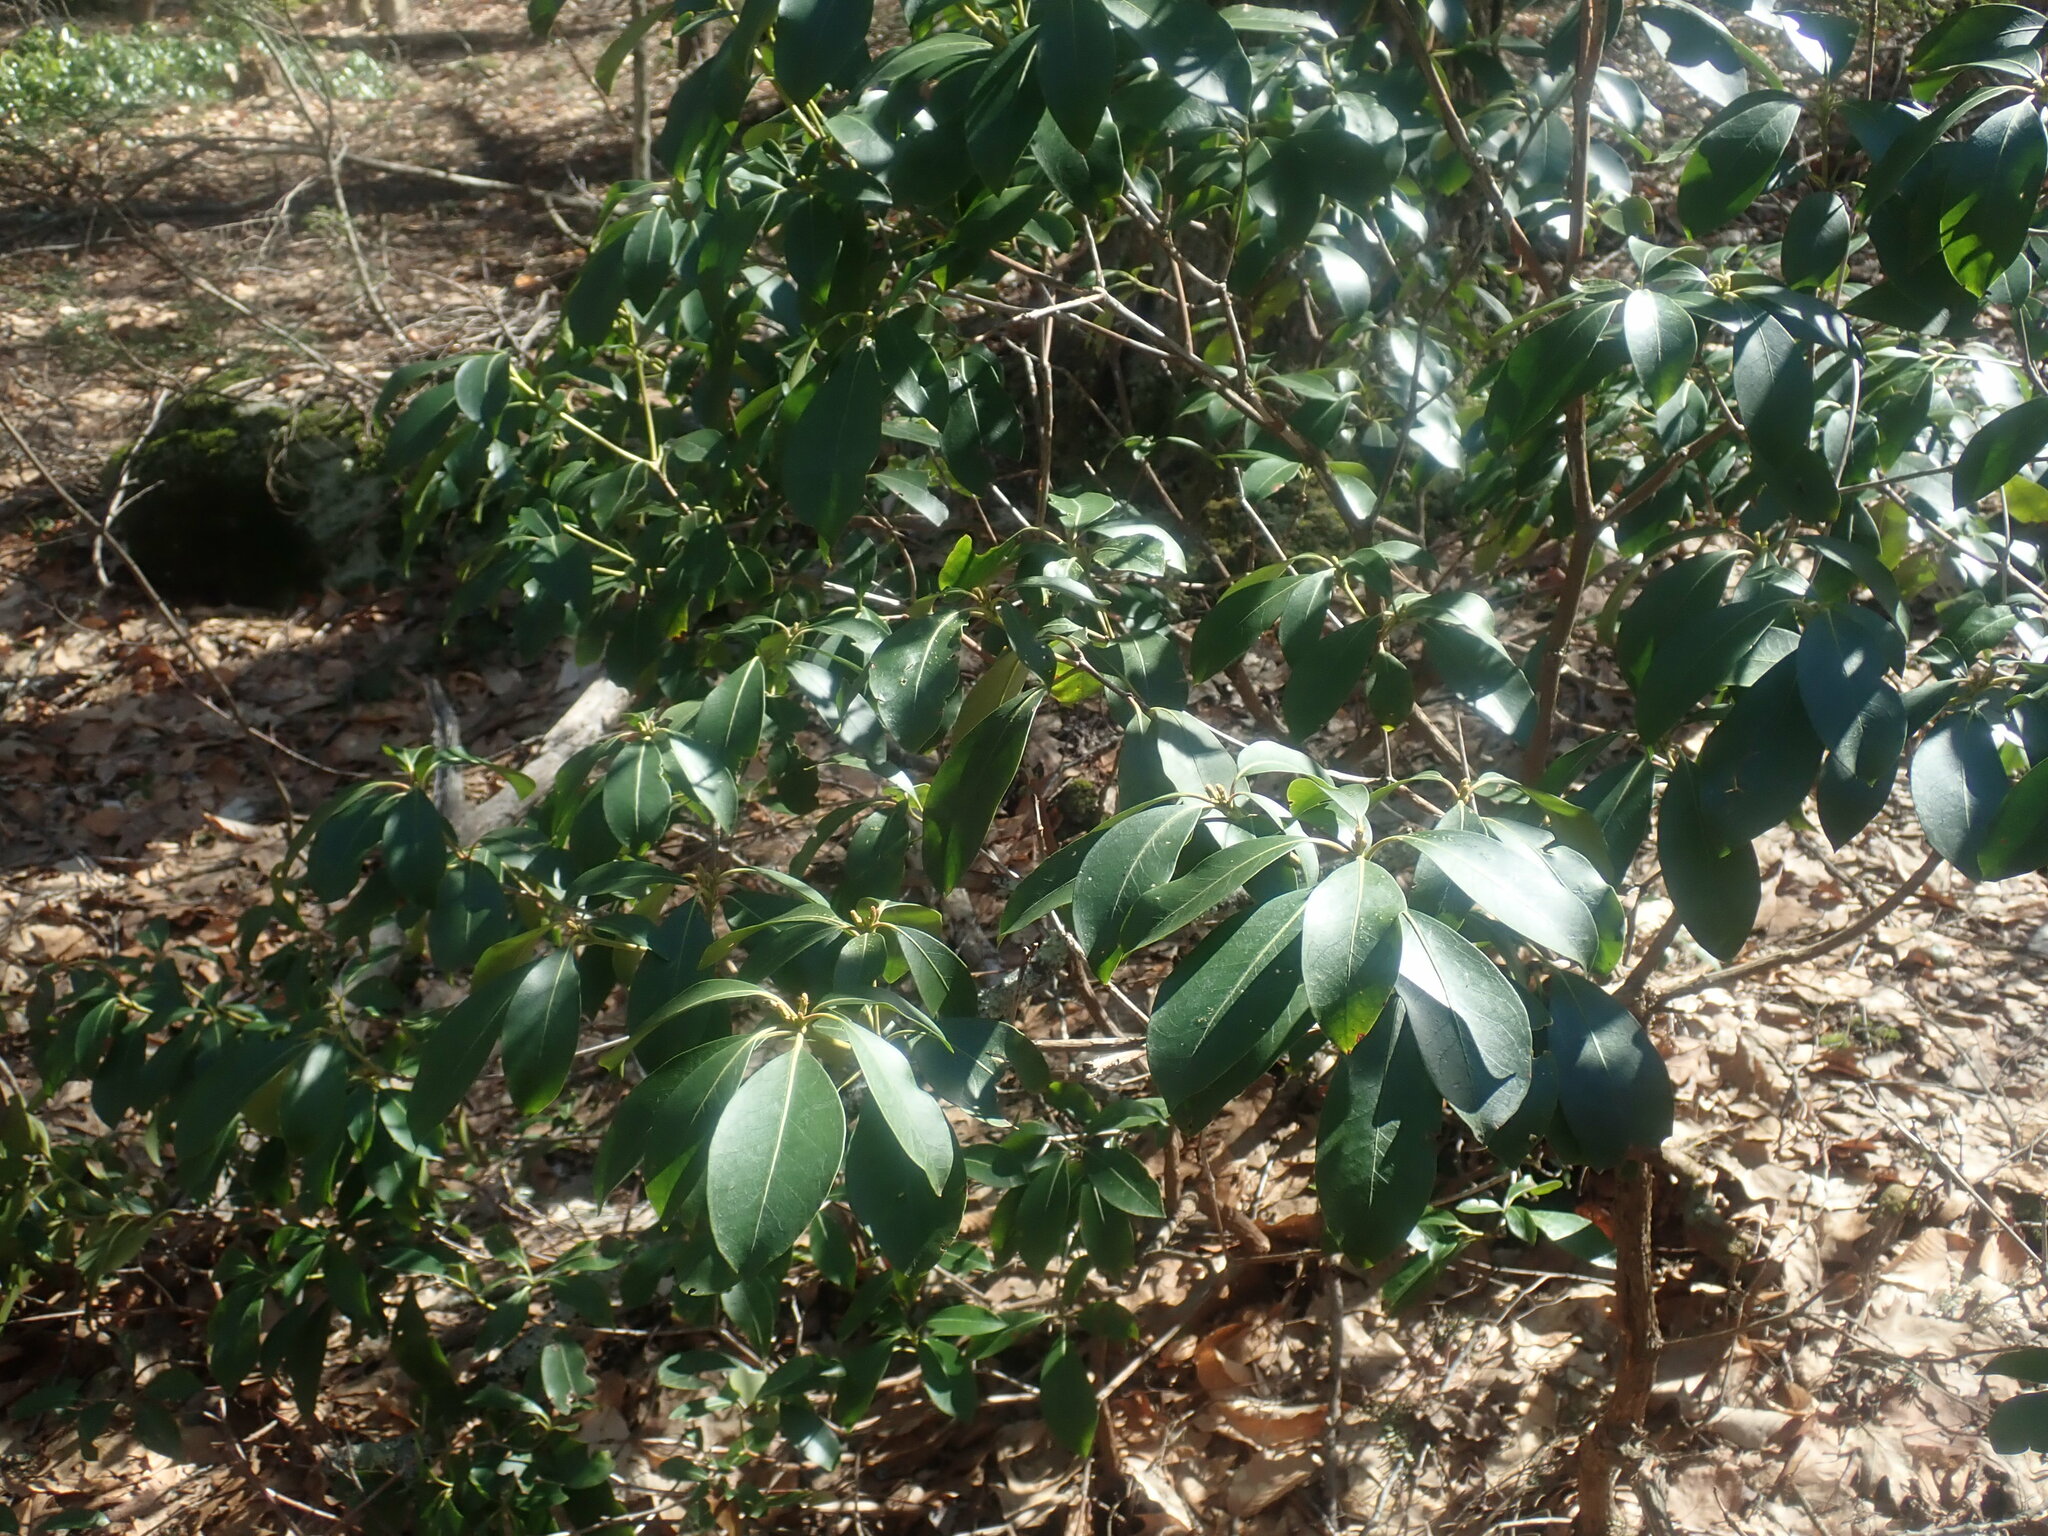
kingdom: Plantae
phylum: Tracheophyta
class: Magnoliopsida
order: Ericales
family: Ericaceae
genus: Kalmia
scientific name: Kalmia latifolia
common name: Mountain-laurel
